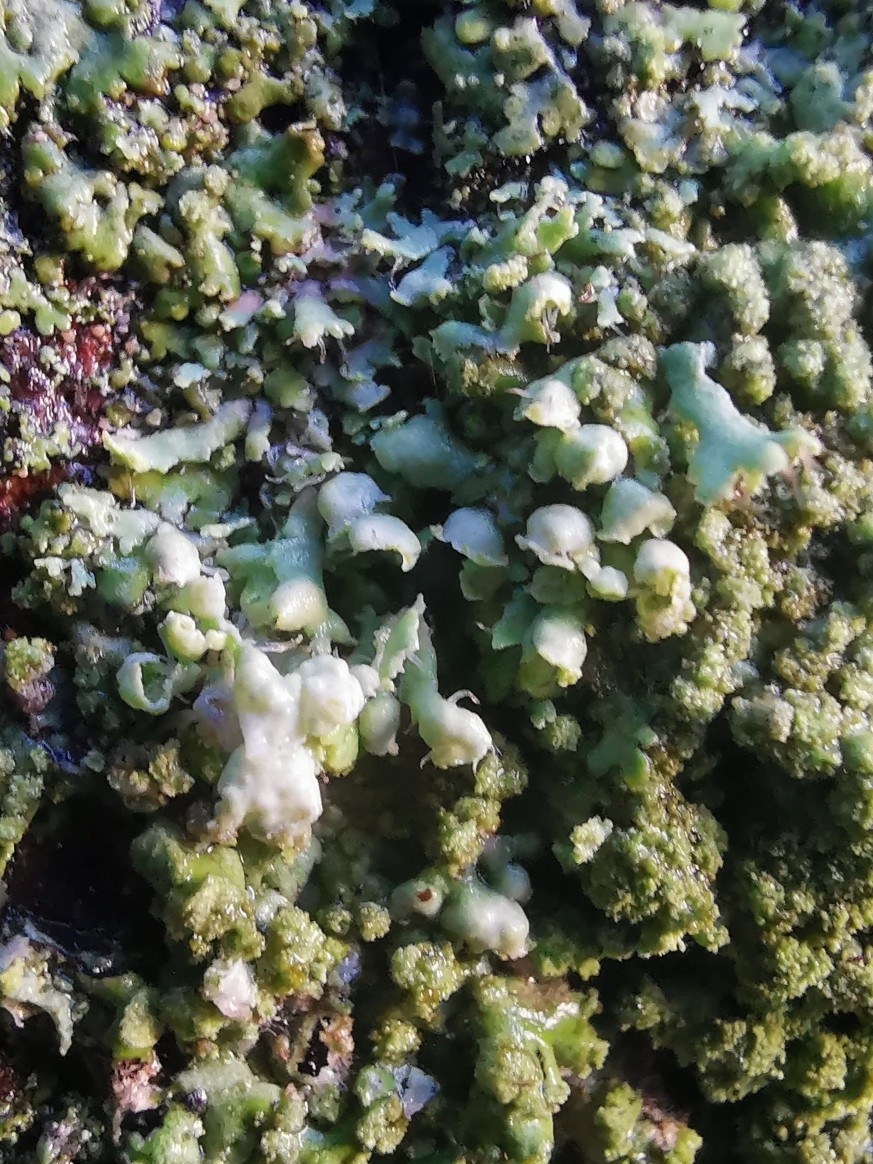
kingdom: Fungi
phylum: Ascomycota
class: Lecanoromycetes
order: Caliciales
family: Physciaceae
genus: Physcia
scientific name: Physcia adscendens
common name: Hooded rosette lichen
